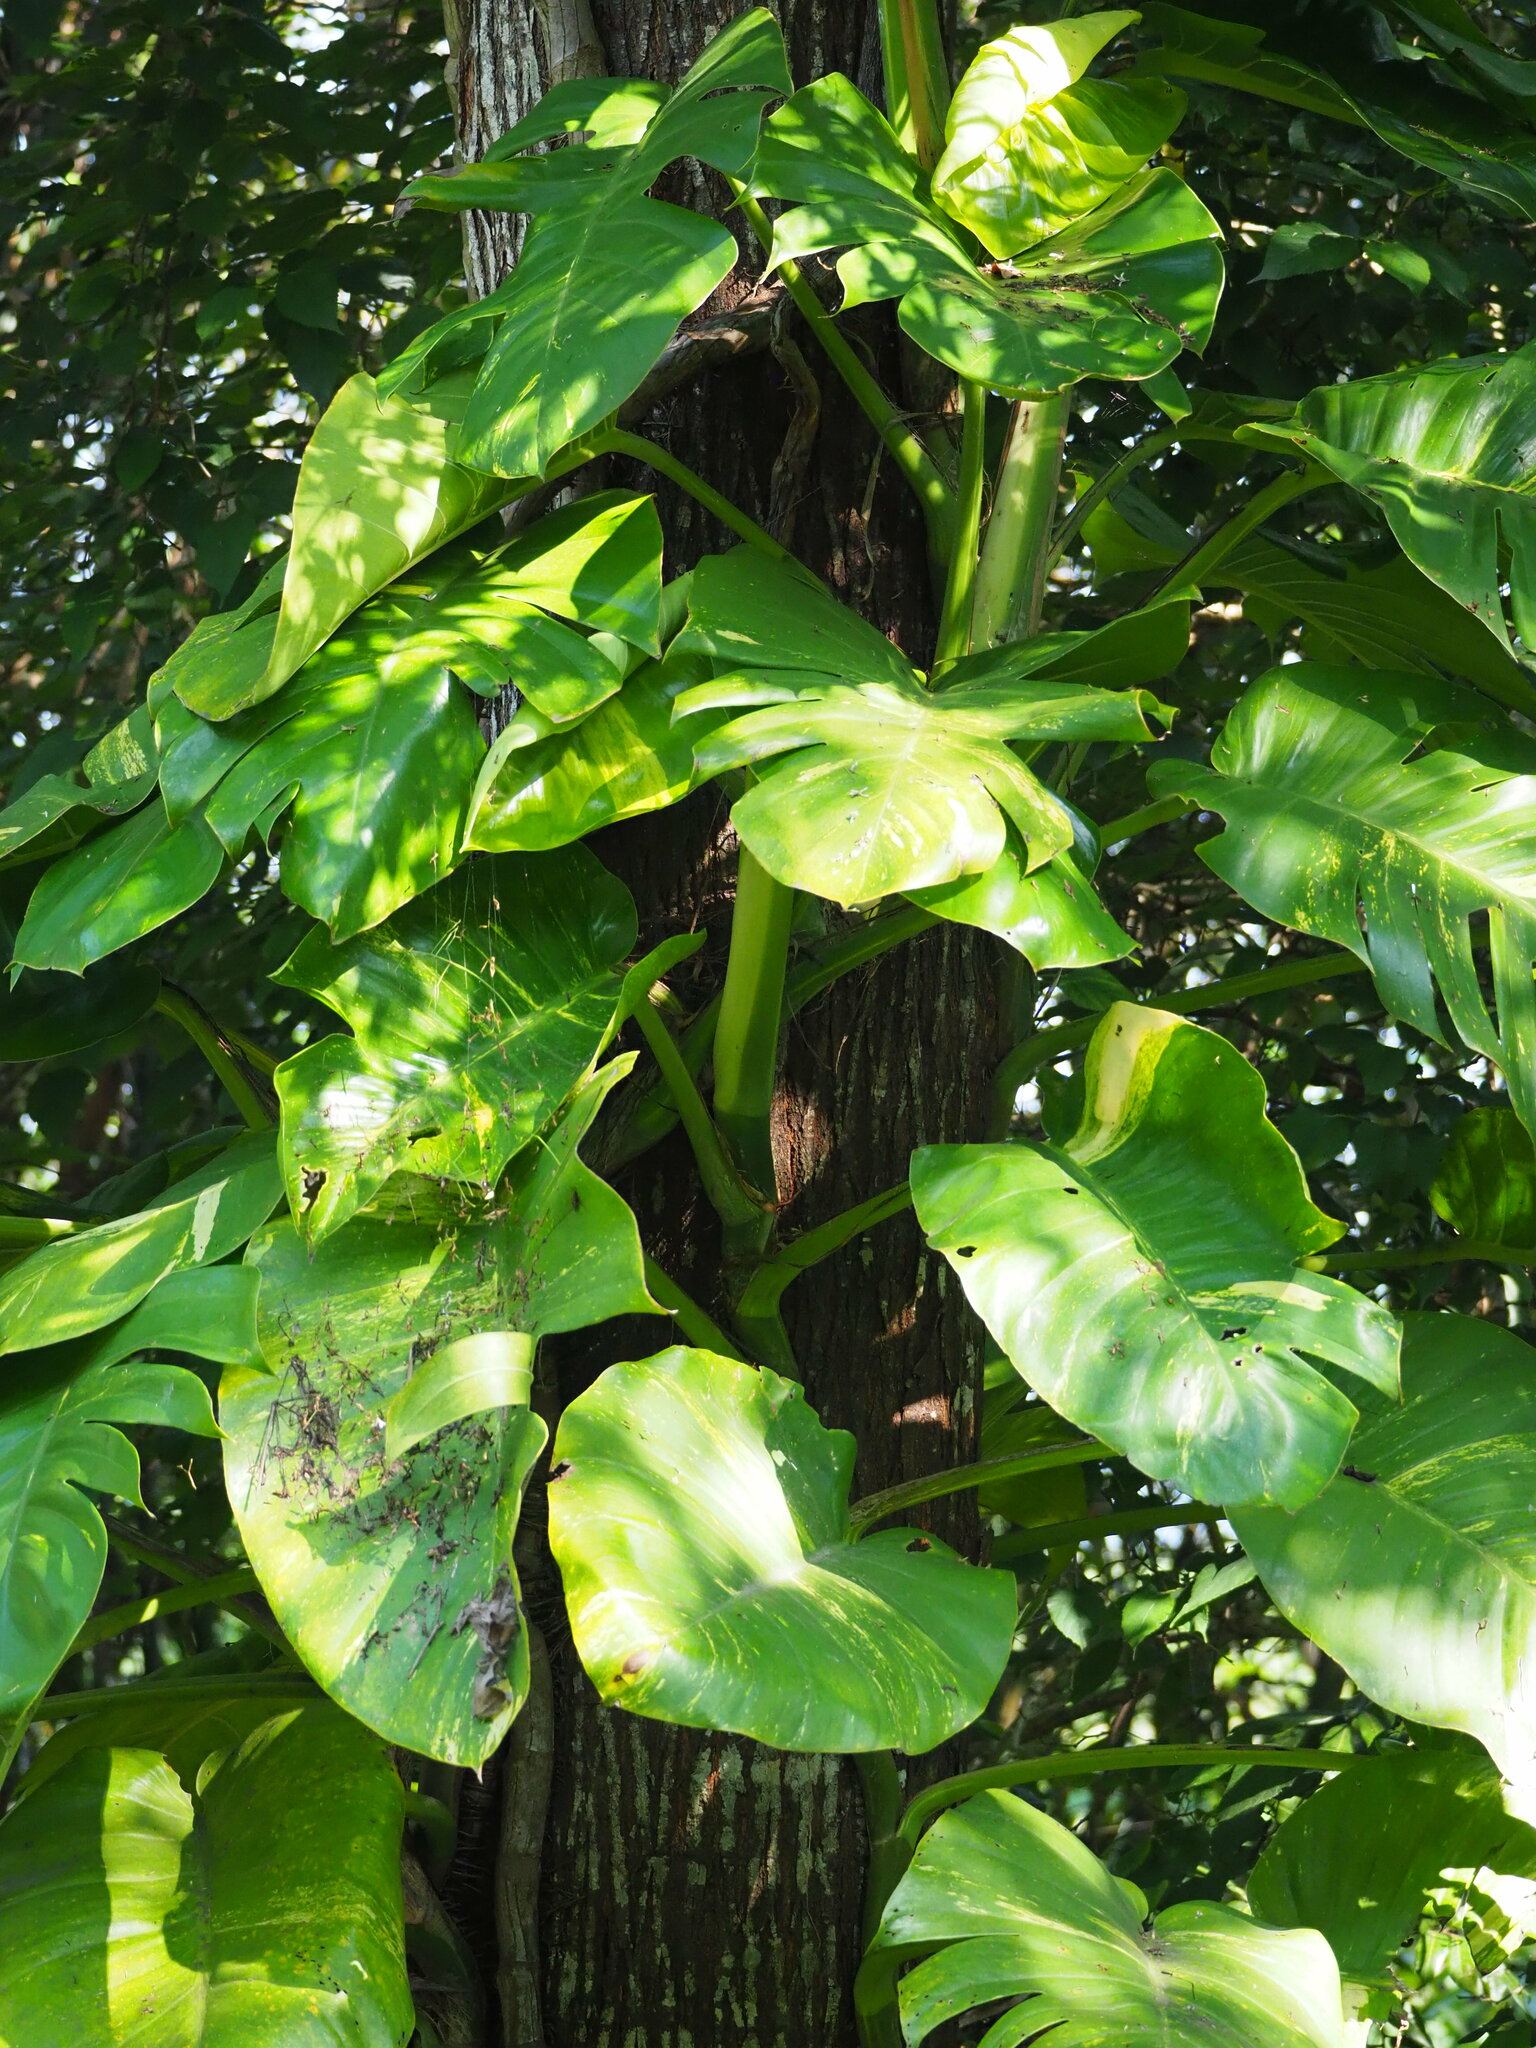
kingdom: Plantae
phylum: Tracheophyta
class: Liliopsida
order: Alismatales
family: Araceae
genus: Epipremnum
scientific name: Epipremnum aureum
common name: Golden hunter's-robe
